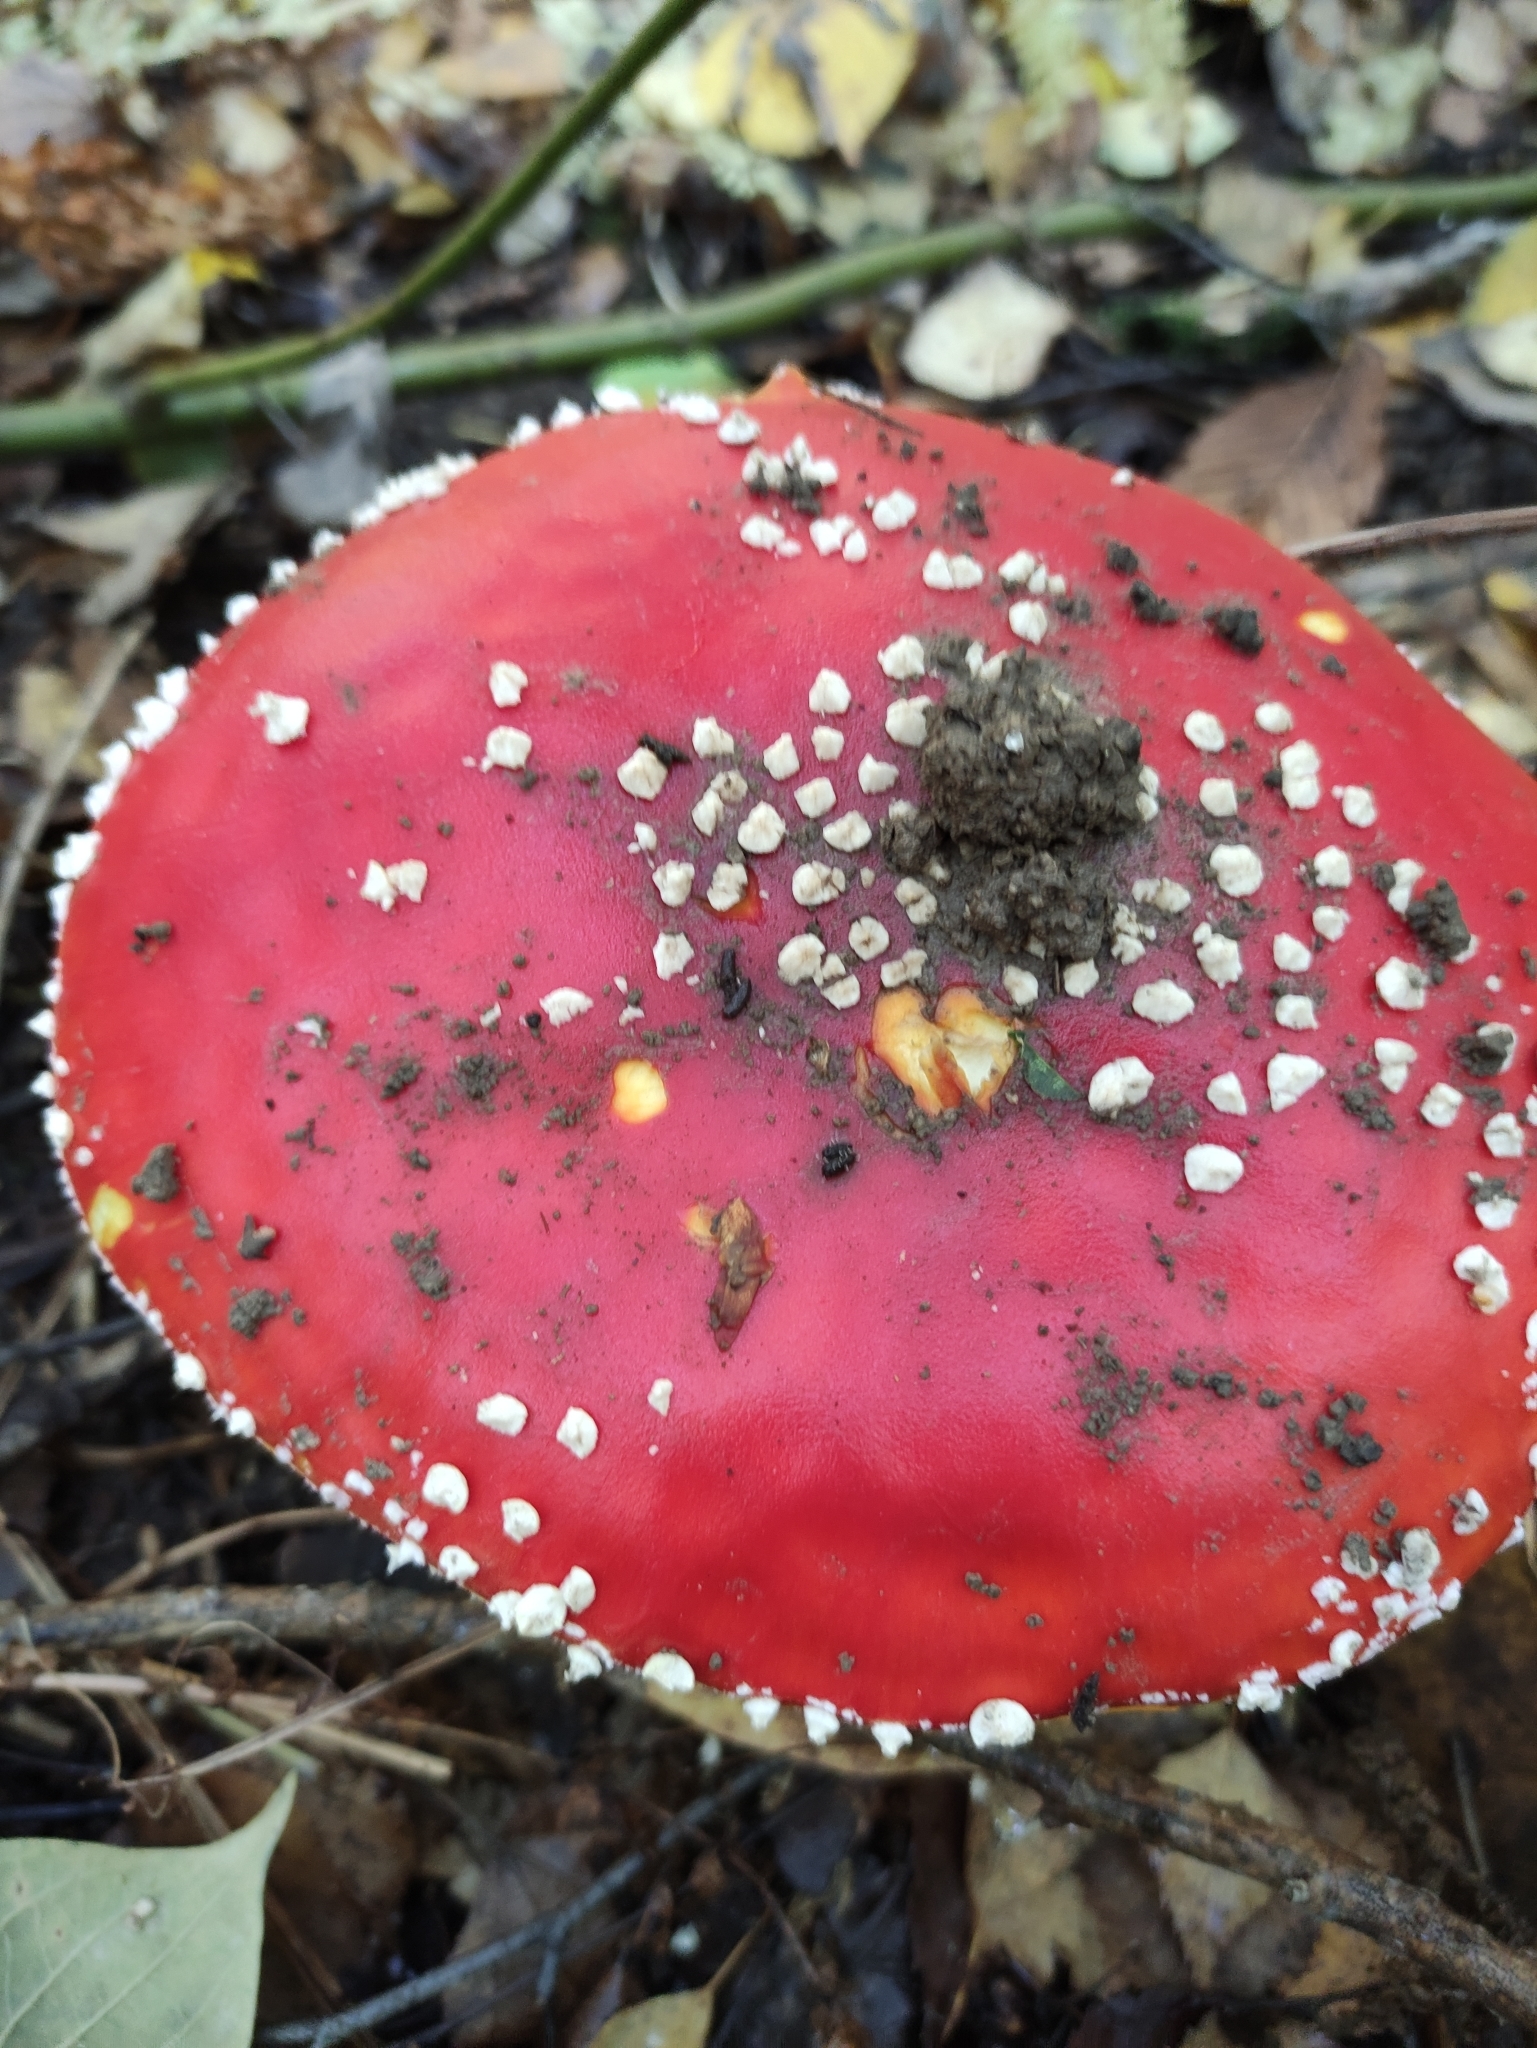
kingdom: Fungi
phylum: Basidiomycota
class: Agaricomycetes
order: Agaricales
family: Amanitaceae
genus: Amanita
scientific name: Amanita muscaria
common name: Fly agaric
